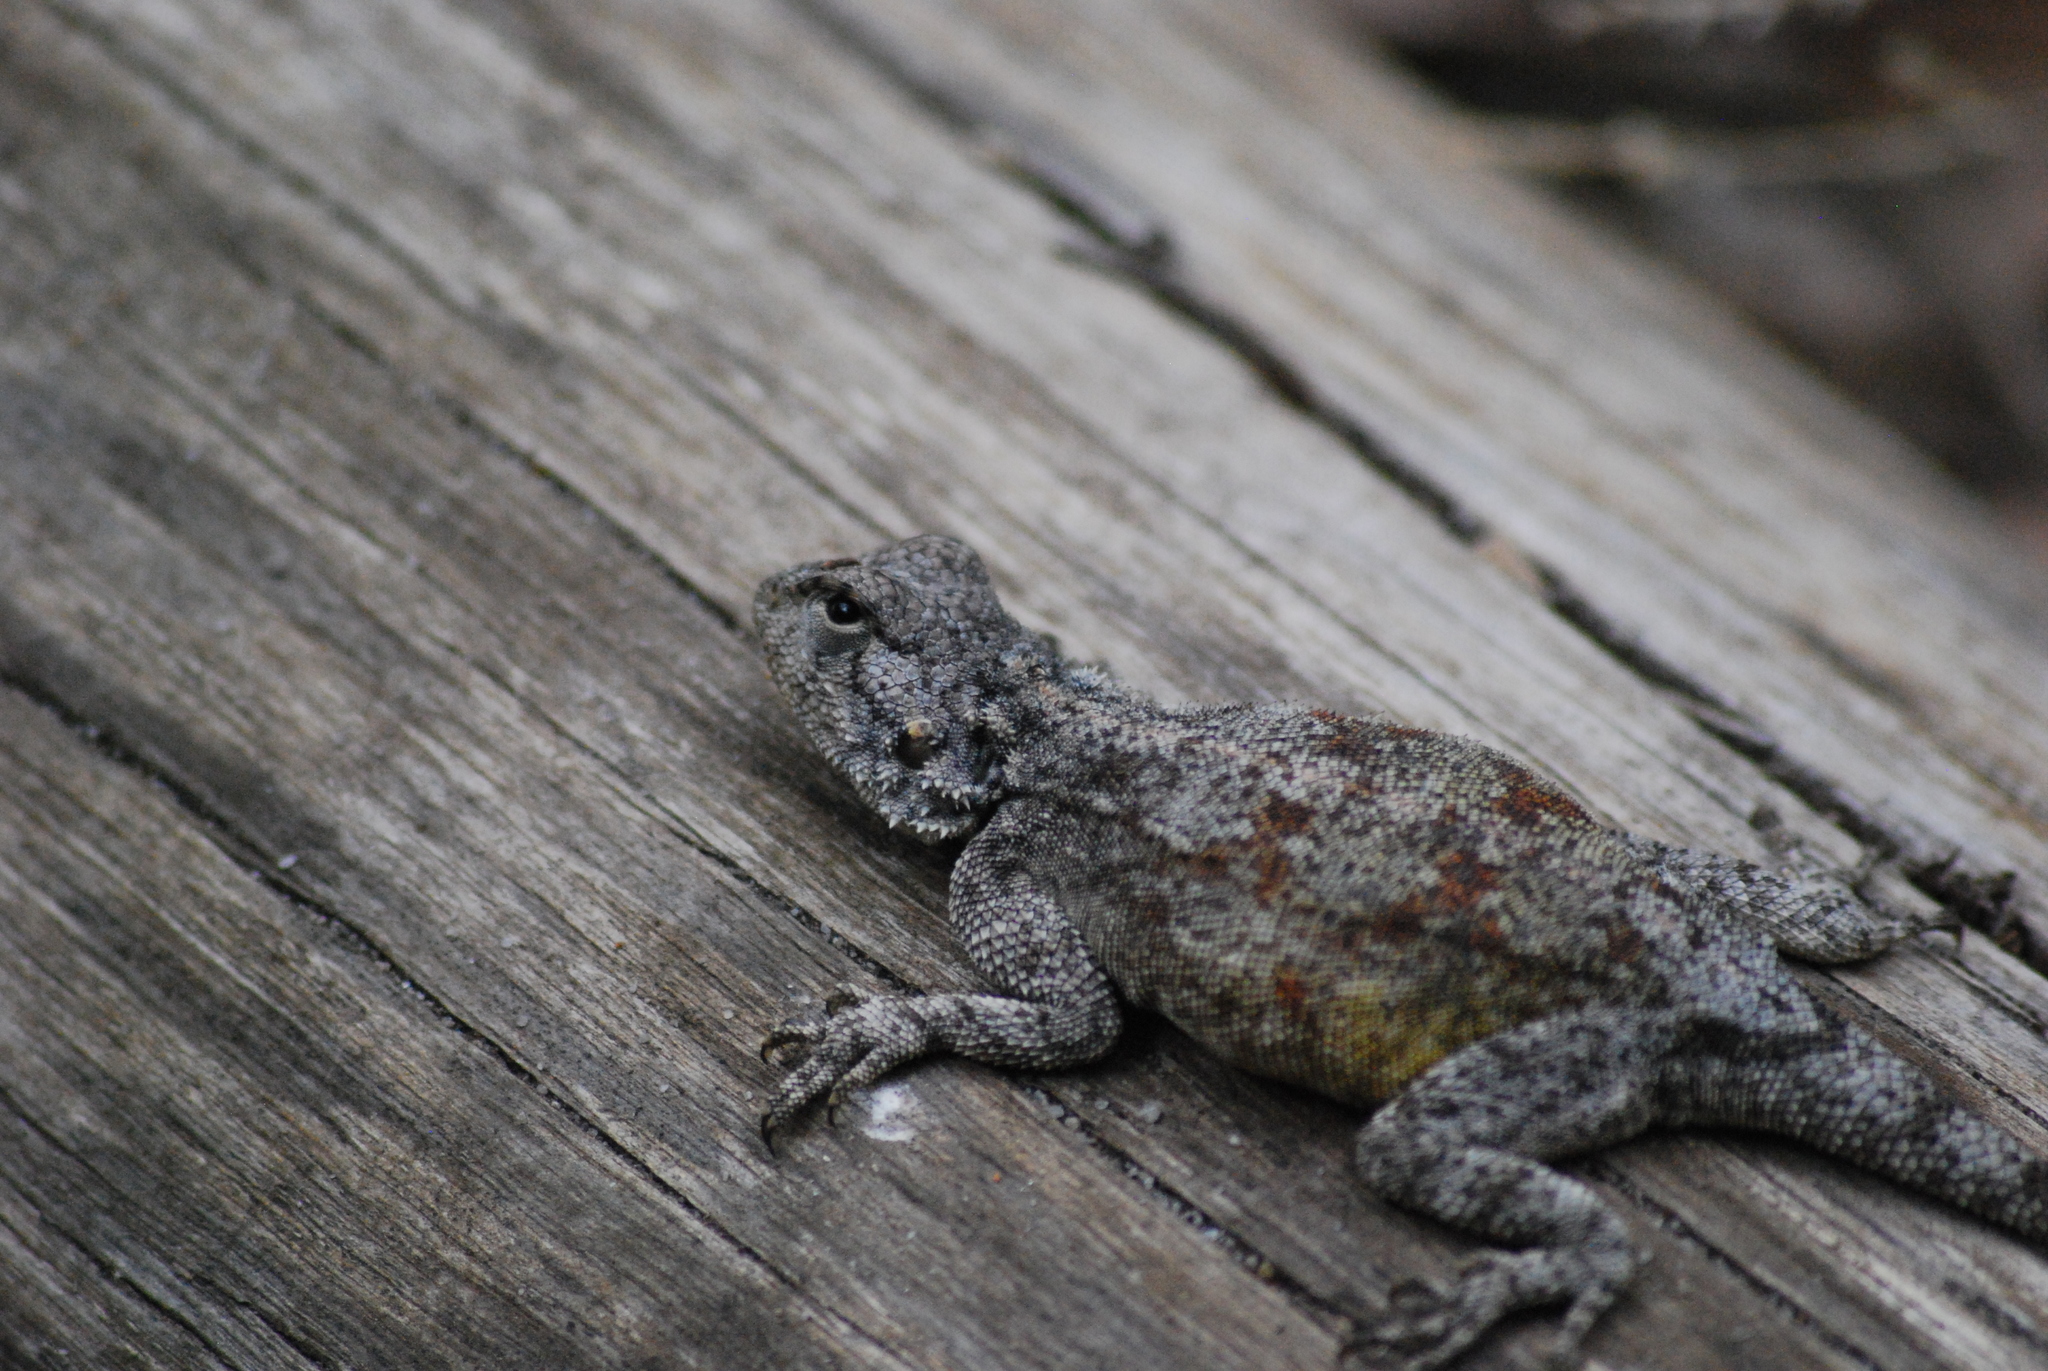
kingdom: Animalia
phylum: Chordata
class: Squamata
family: Agamidae
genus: Agama
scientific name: Agama atra
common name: Southern african rock agama
